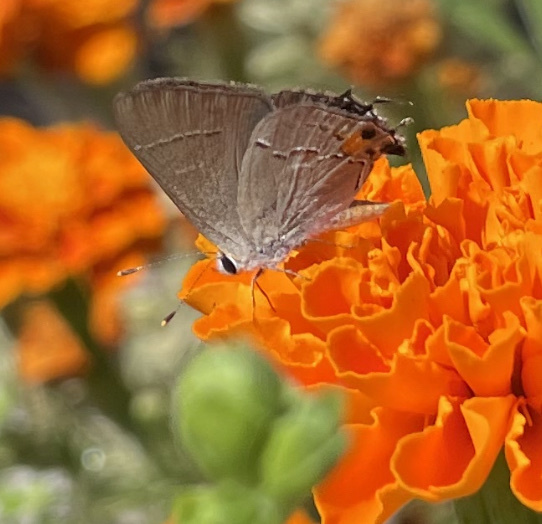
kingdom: Animalia
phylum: Arthropoda
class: Insecta
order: Lepidoptera
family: Lycaenidae
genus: Strymon
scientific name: Strymon melinus
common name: Gray hairstreak
